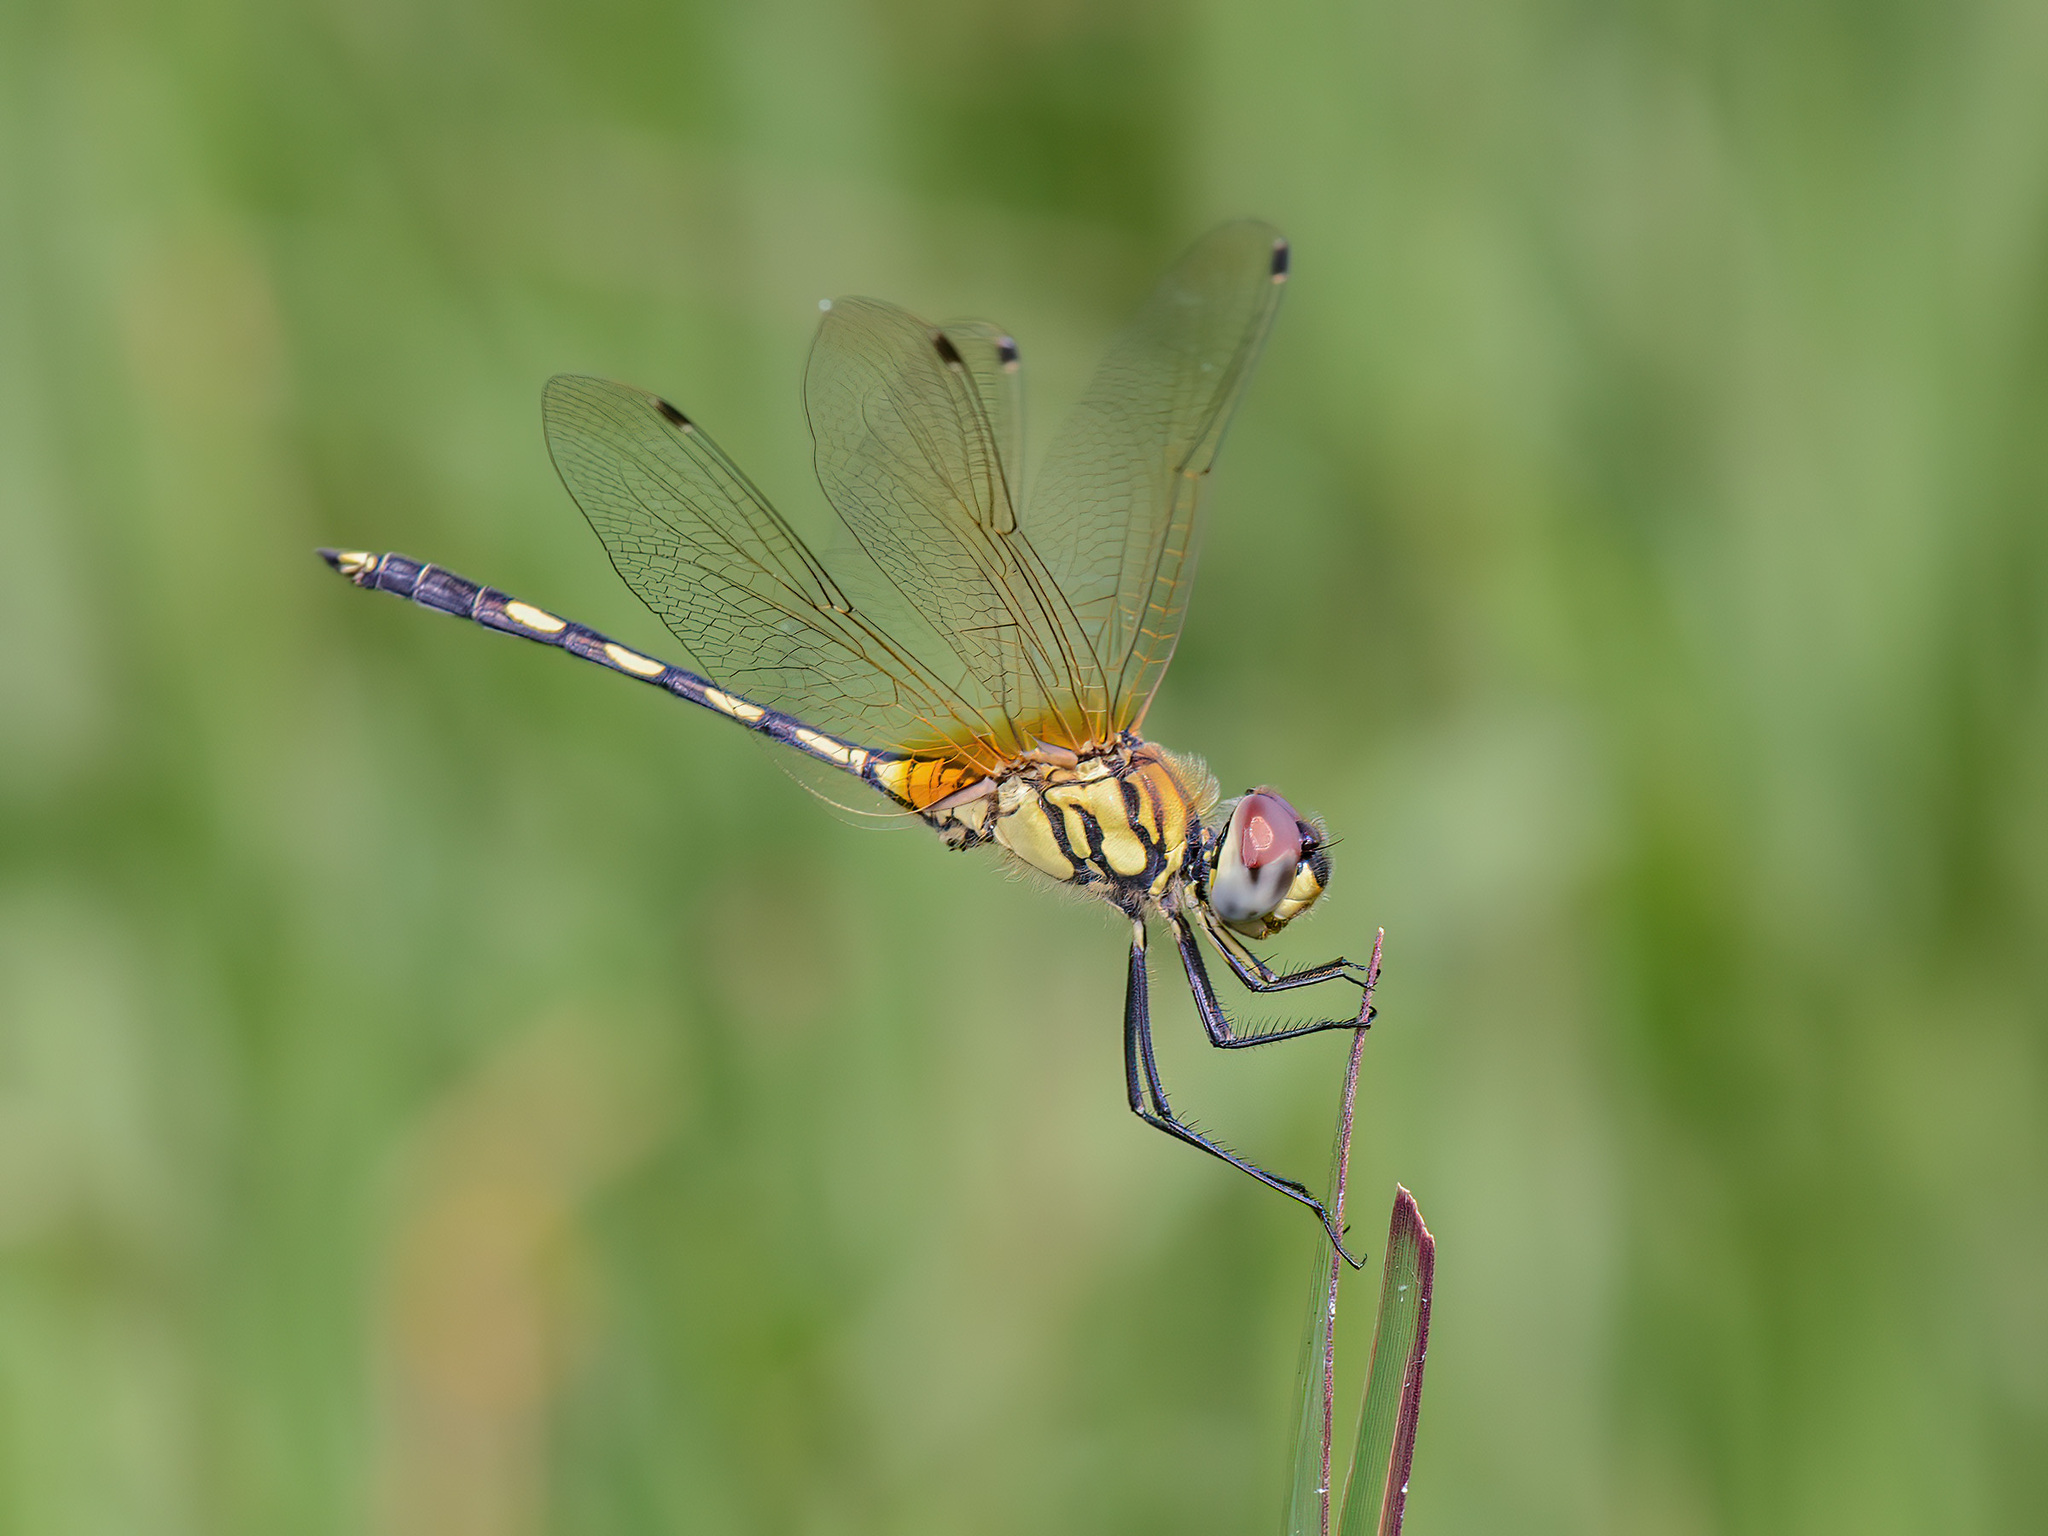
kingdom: Animalia
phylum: Arthropoda
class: Insecta
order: Odonata
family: Libellulidae
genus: Trithemis
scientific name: Trithemis pallidinervis
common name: Dancing dropwing
